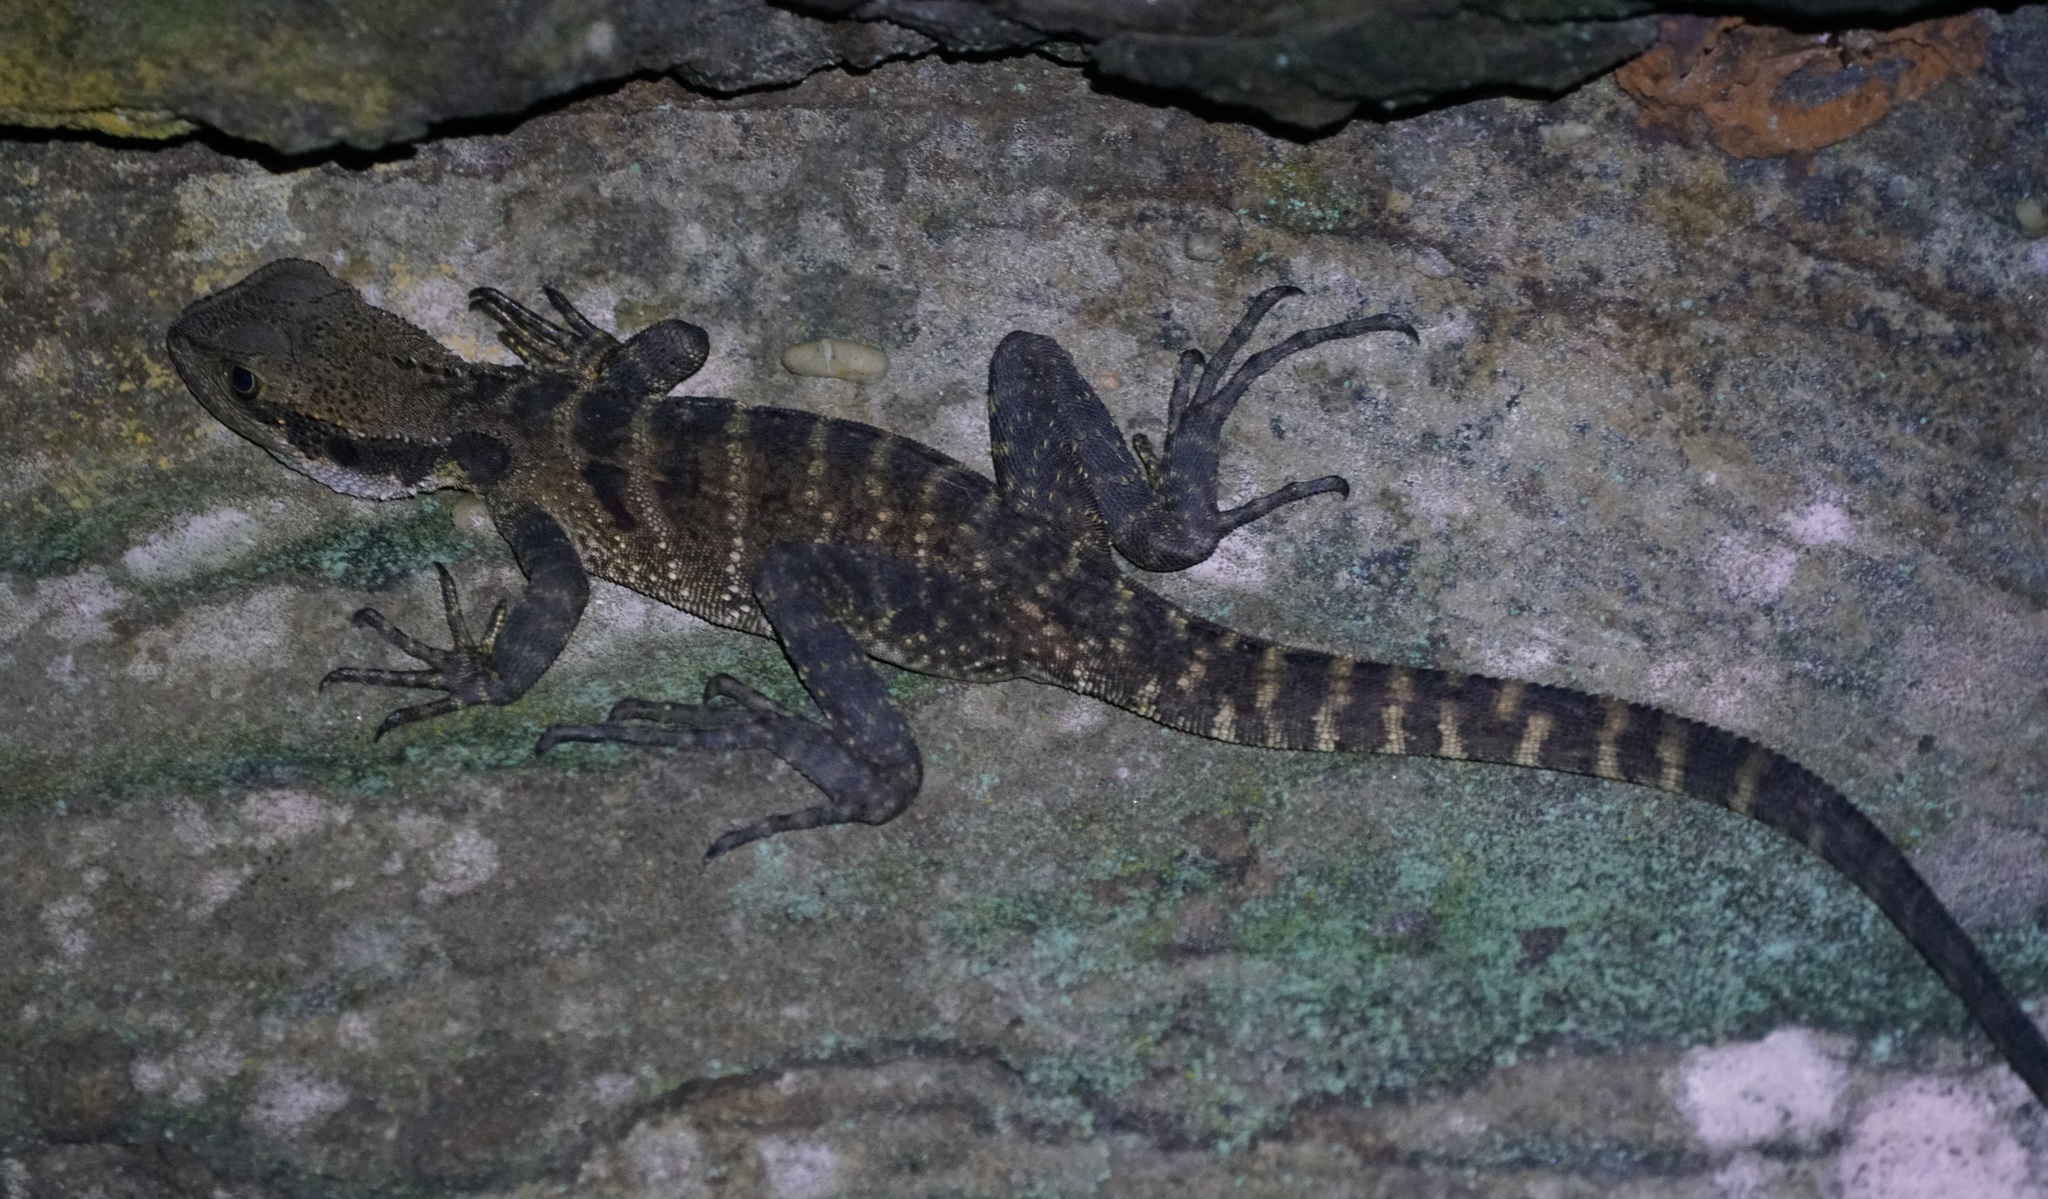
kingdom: Animalia
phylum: Chordata
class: Squamata
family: Agamidae
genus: Intellagama
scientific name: Intellagama lesueurii
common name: Eastern water dragon
